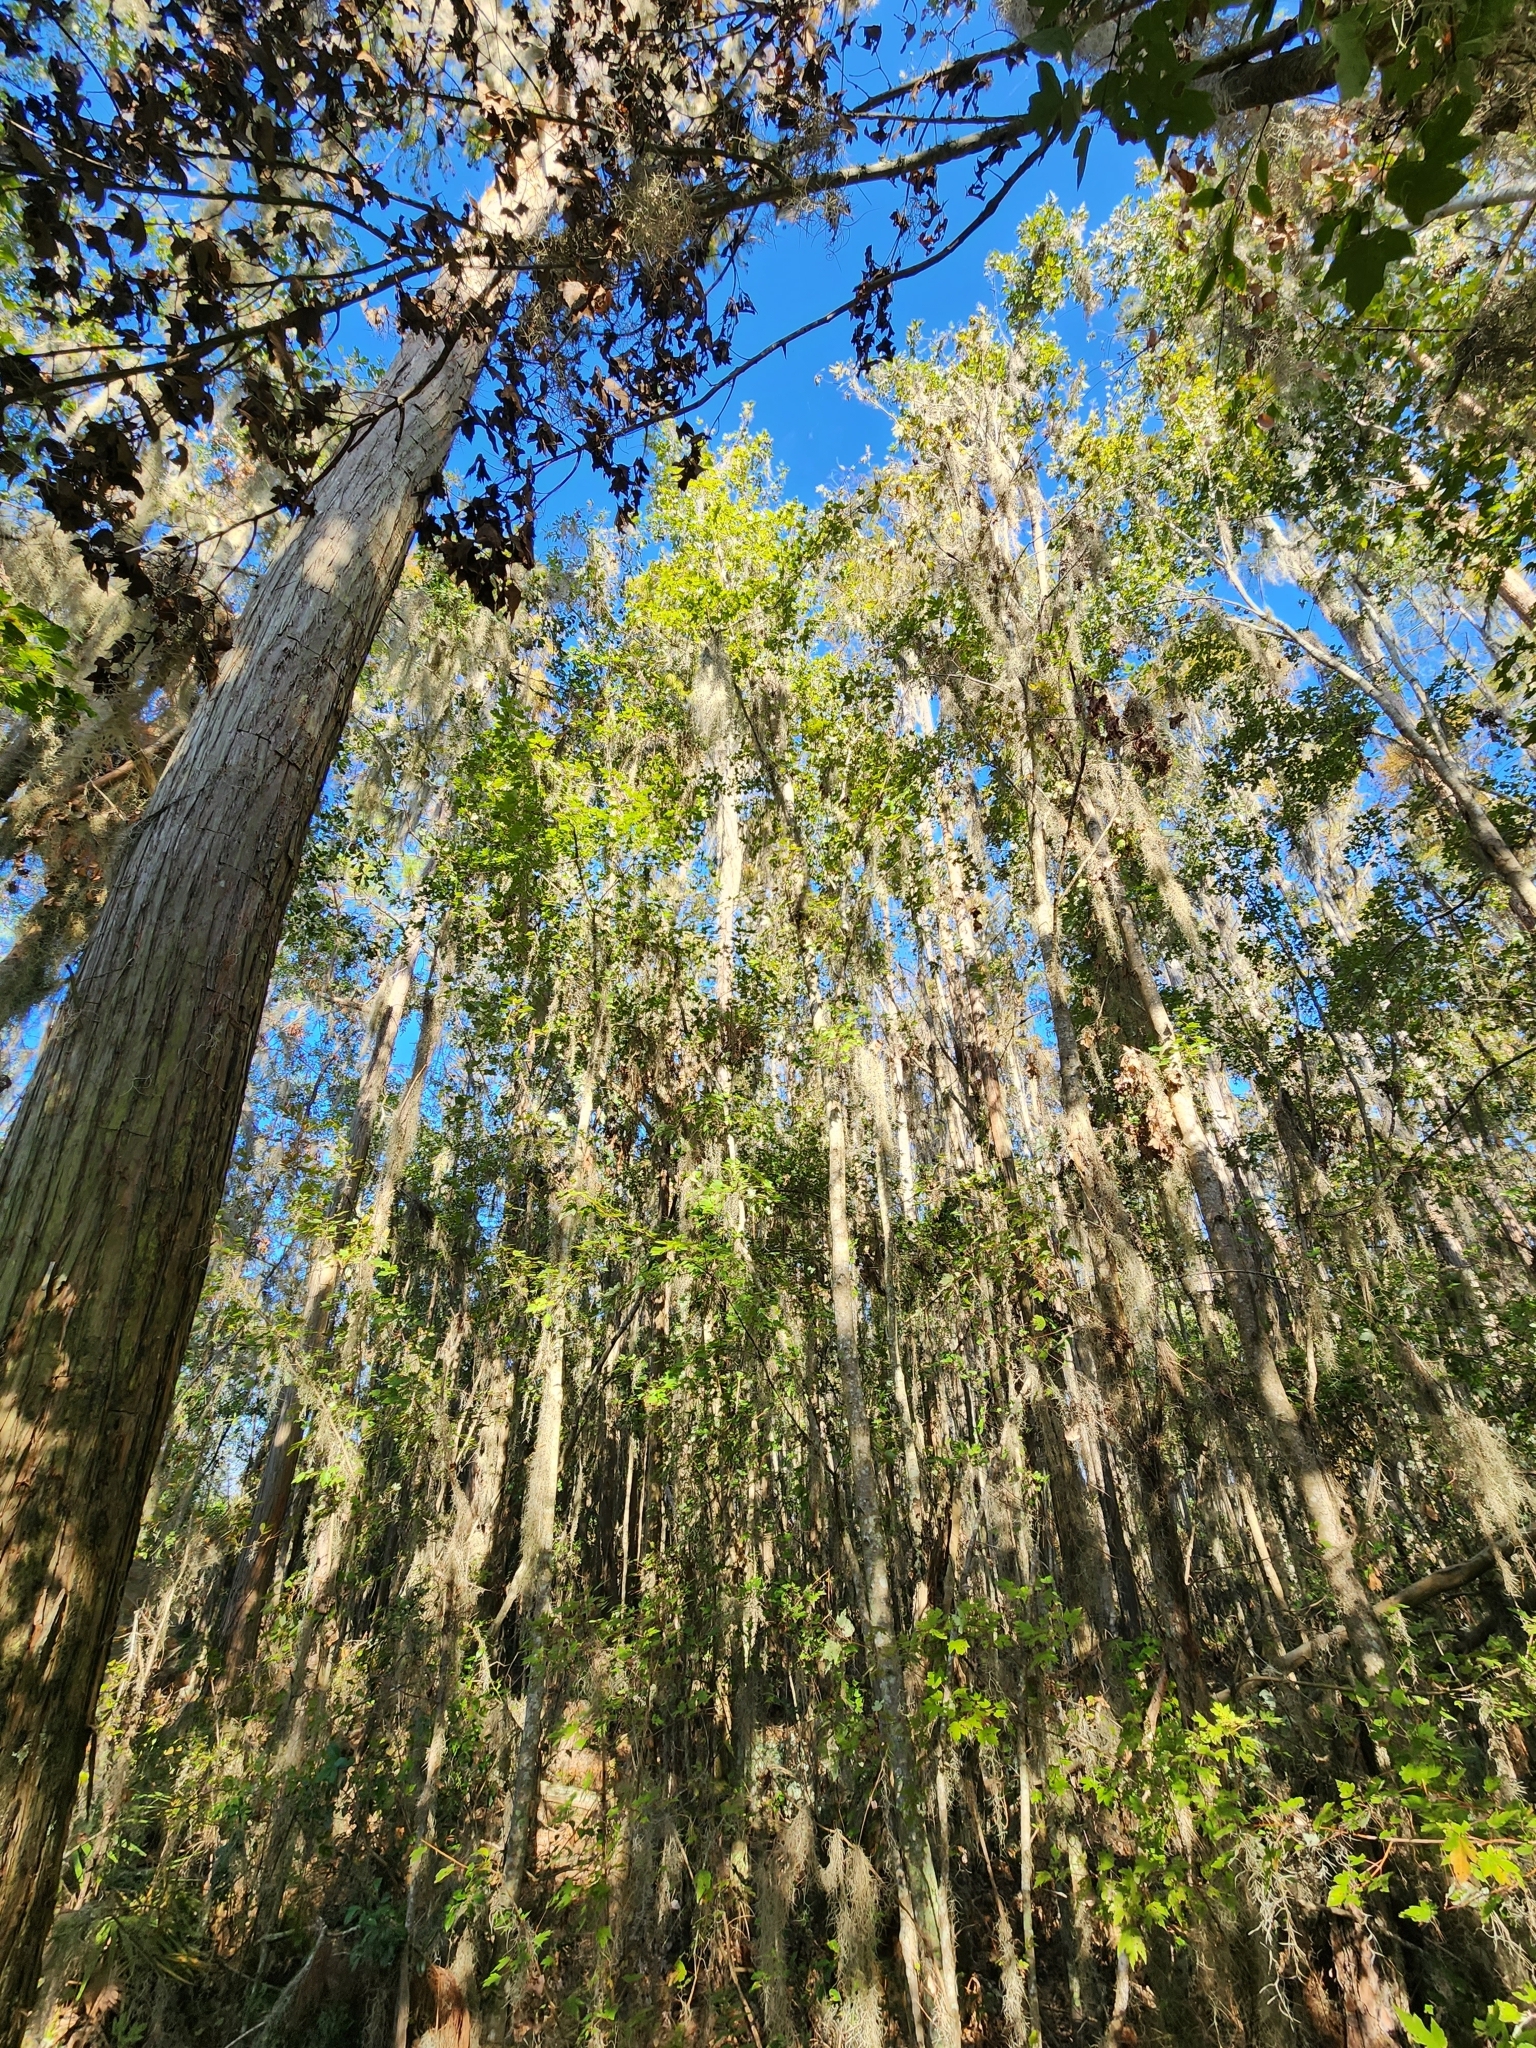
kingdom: Plantae
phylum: Tracheophyta
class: Pinopsida
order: Pinales
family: Cupressaceae
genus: Taxodium
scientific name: Taxodium distichum
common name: Bald cypress
